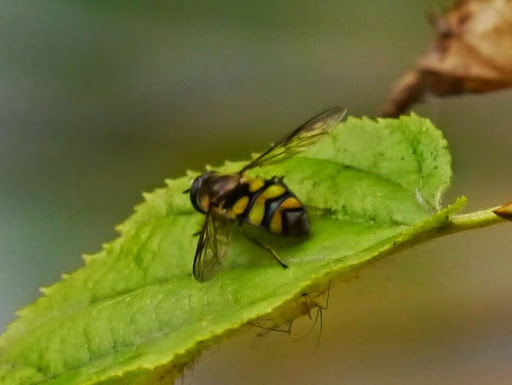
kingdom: Animalia
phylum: Arthropoda
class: Insecta
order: Diptera
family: Syrphidae
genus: Didea
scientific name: Didea fuscipes
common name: Undivided lucent
